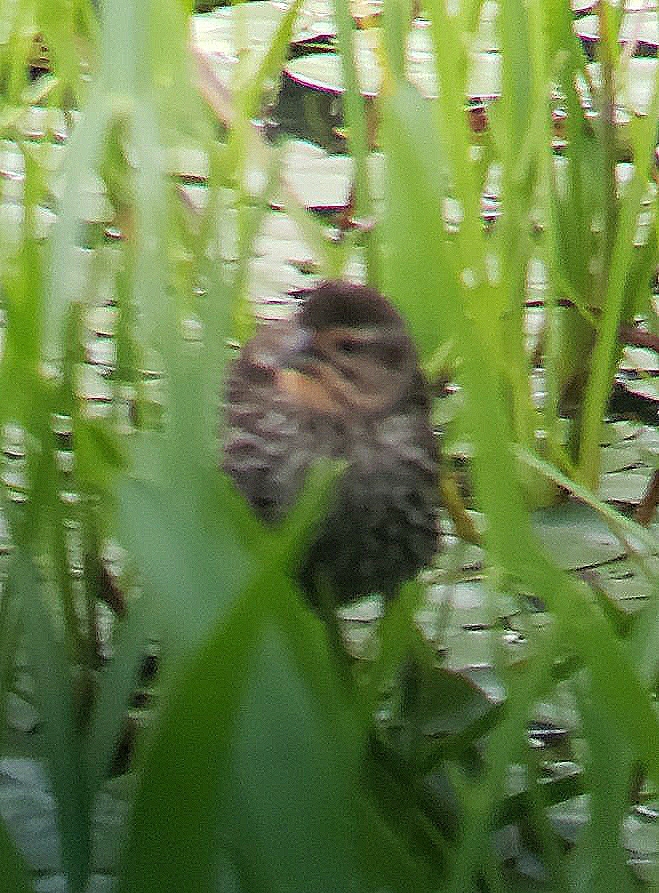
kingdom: Animalia
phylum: Chordata
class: Aves
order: Passeriformes
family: Icteridae
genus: Agelaius
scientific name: Agelaius phoeniceus
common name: Red-winged blackbird
